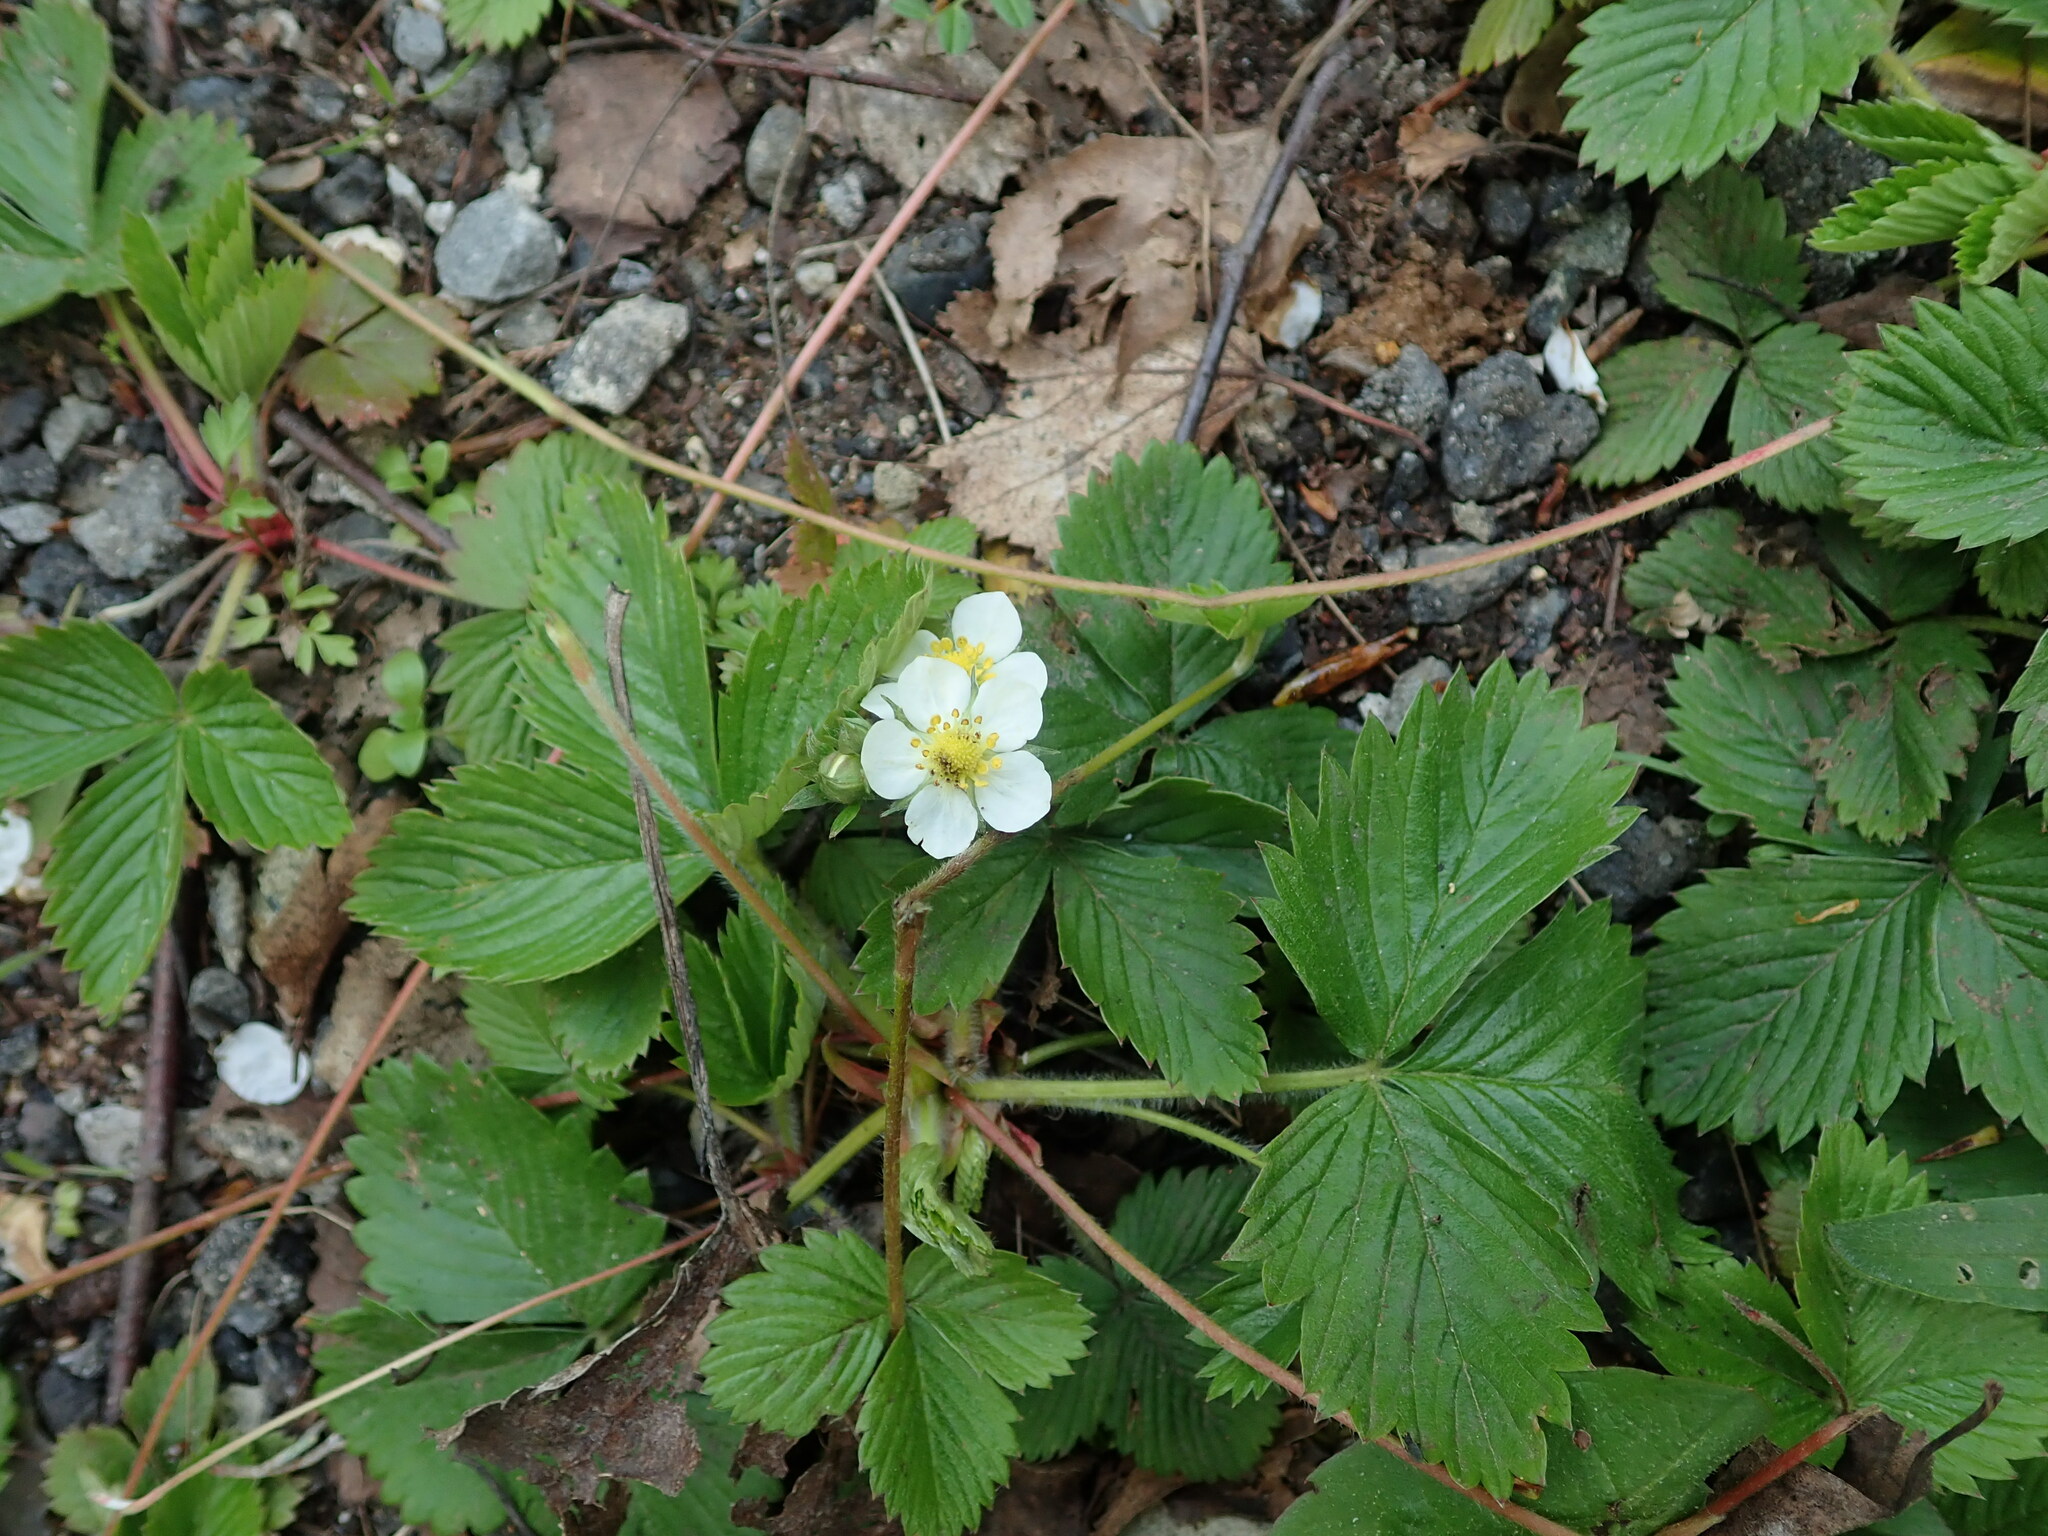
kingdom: Plantae
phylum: Tracheophyta
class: Magnoliopsida
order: Rosales
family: Rosaceae
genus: Fragaria
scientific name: Fragaria vesca
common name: Wild strawberry
